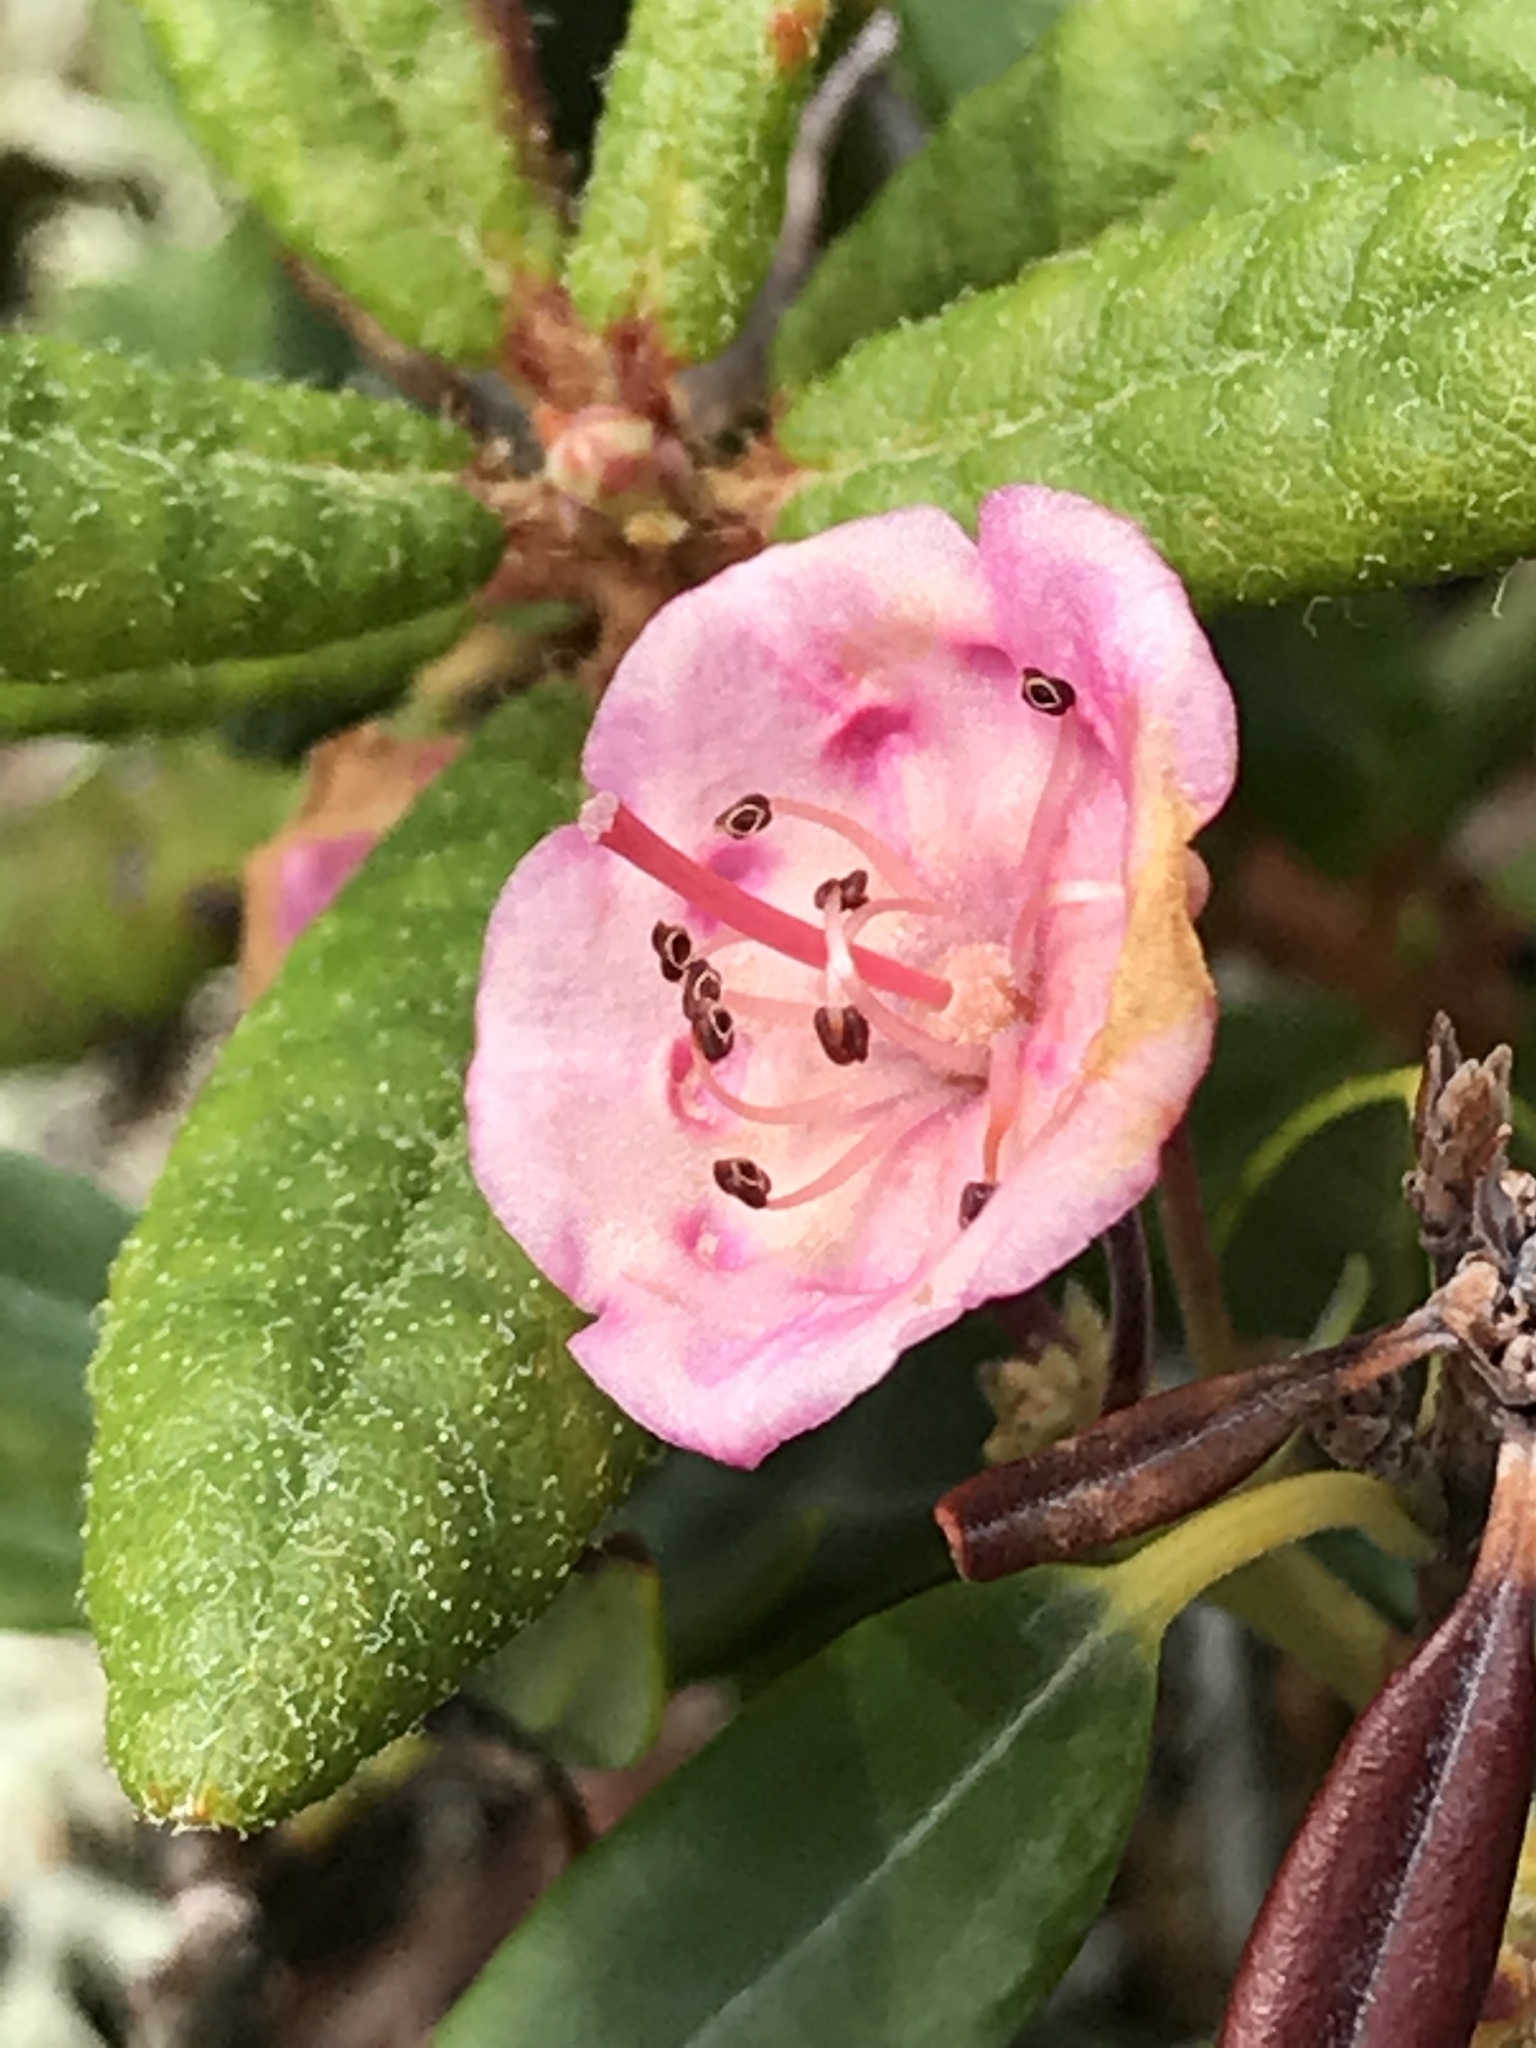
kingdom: Plantae
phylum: Tracheophyta
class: Magnoliopsida
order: Ericales
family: Ericaceae
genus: Kalmia
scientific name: Kalmia polifolia
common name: Bog-laurel
